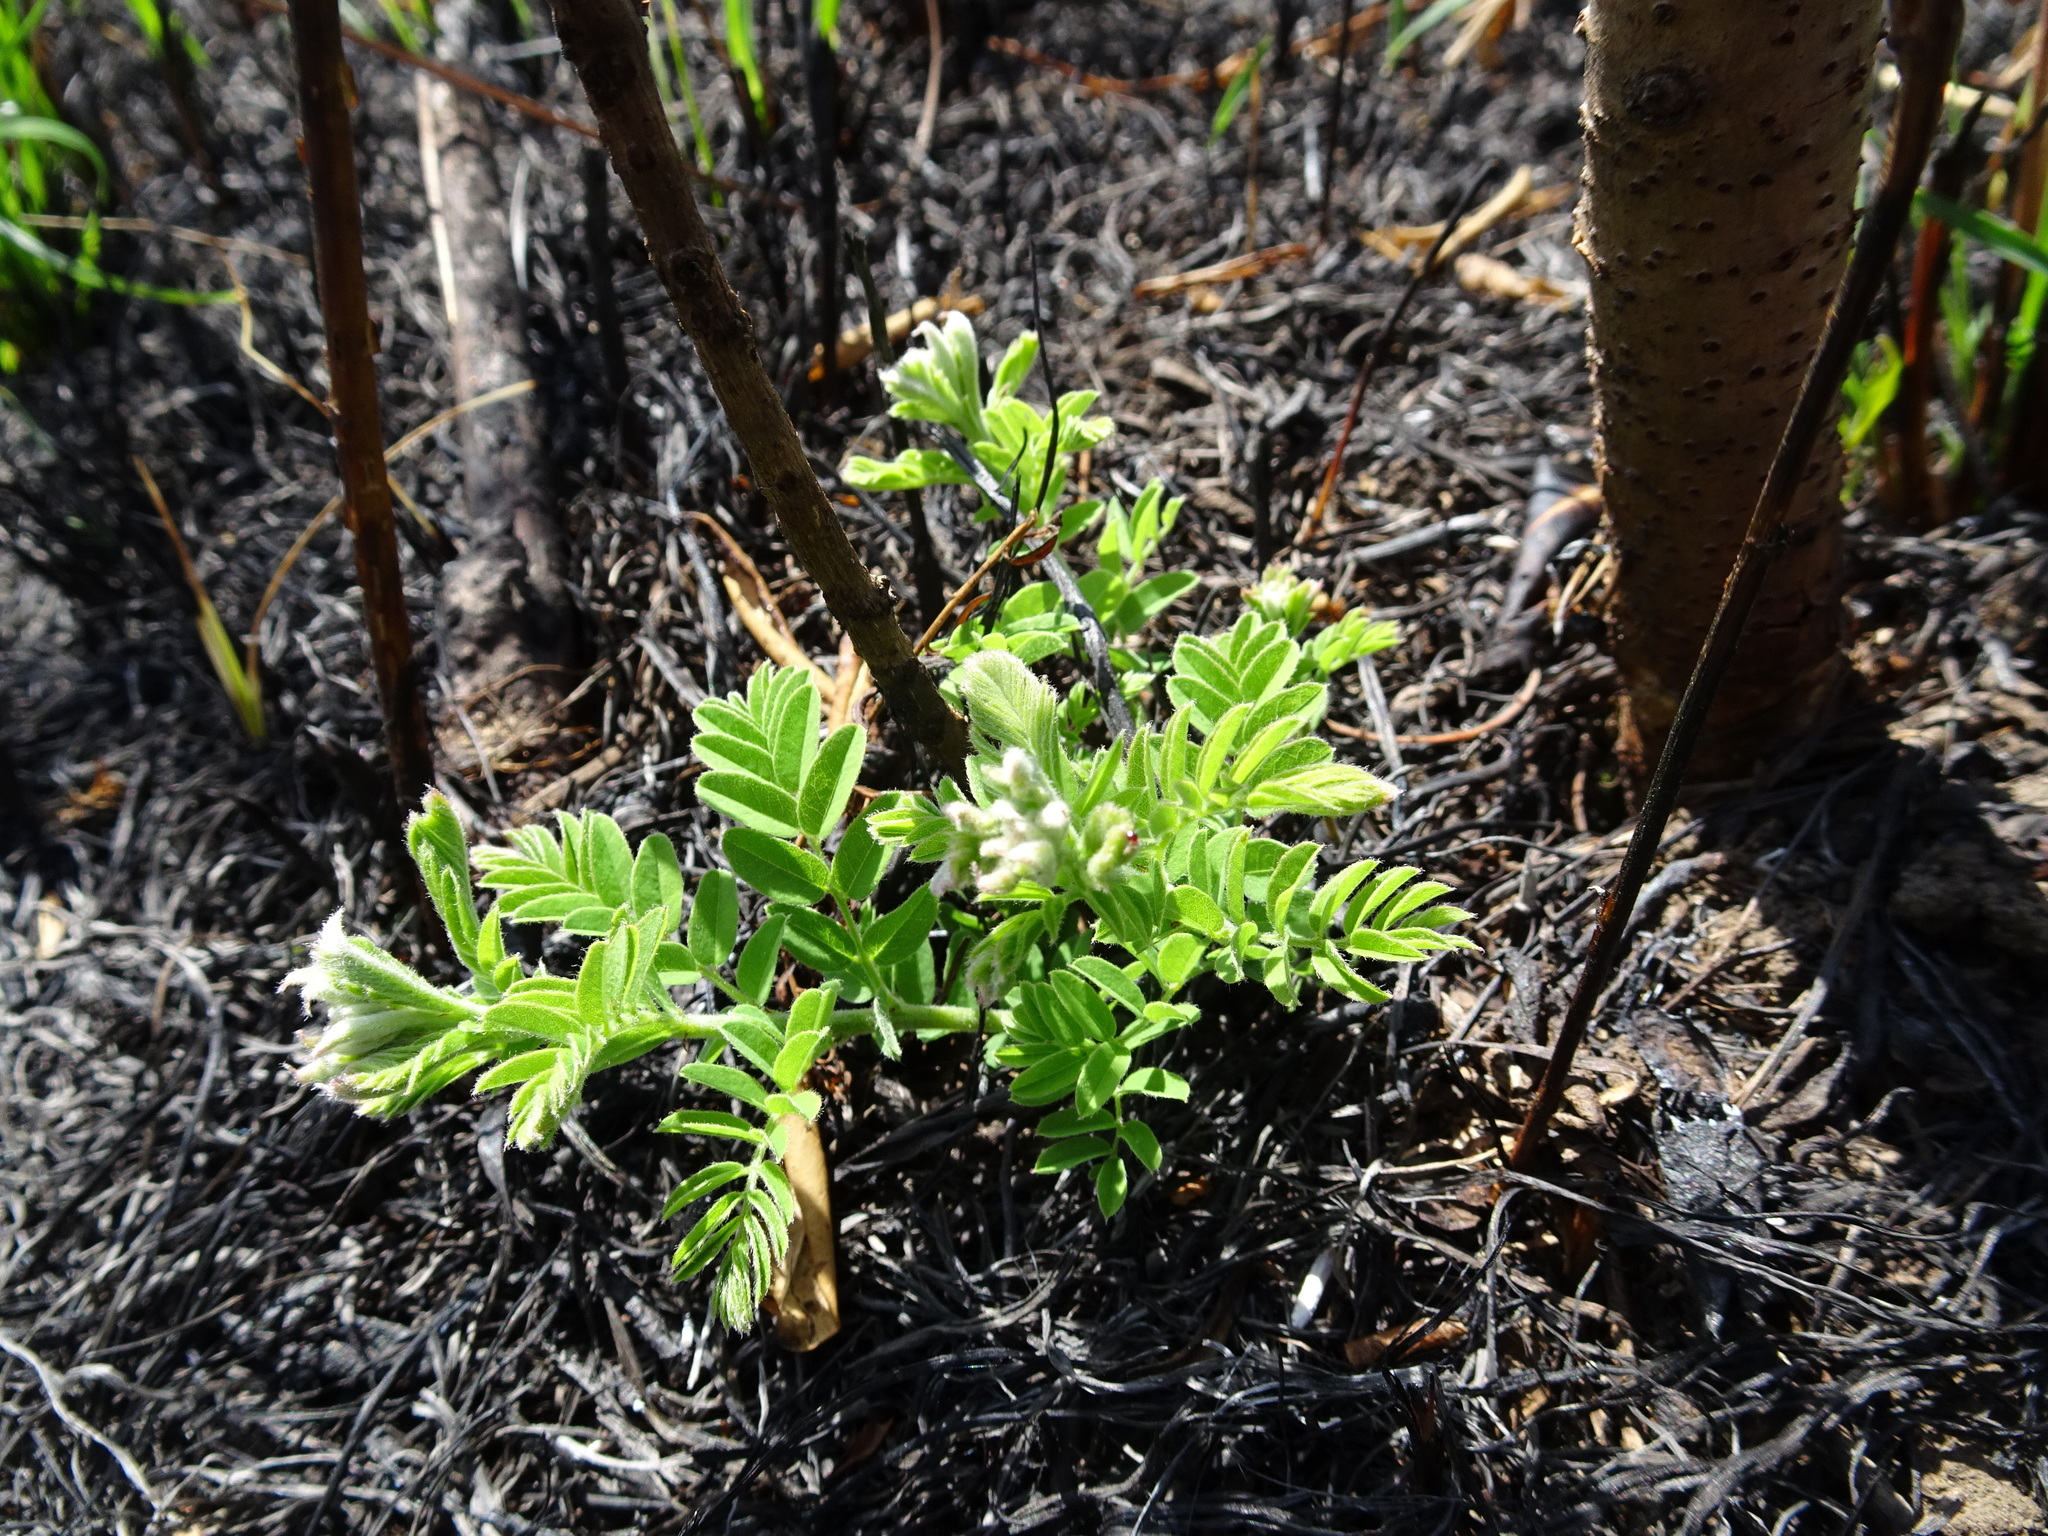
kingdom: Plantae
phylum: Tracheophyta
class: Magnoliopsida
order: Fabales
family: Fabaceae
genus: Amorpha
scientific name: Amorpha canescens
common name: Leadplant
